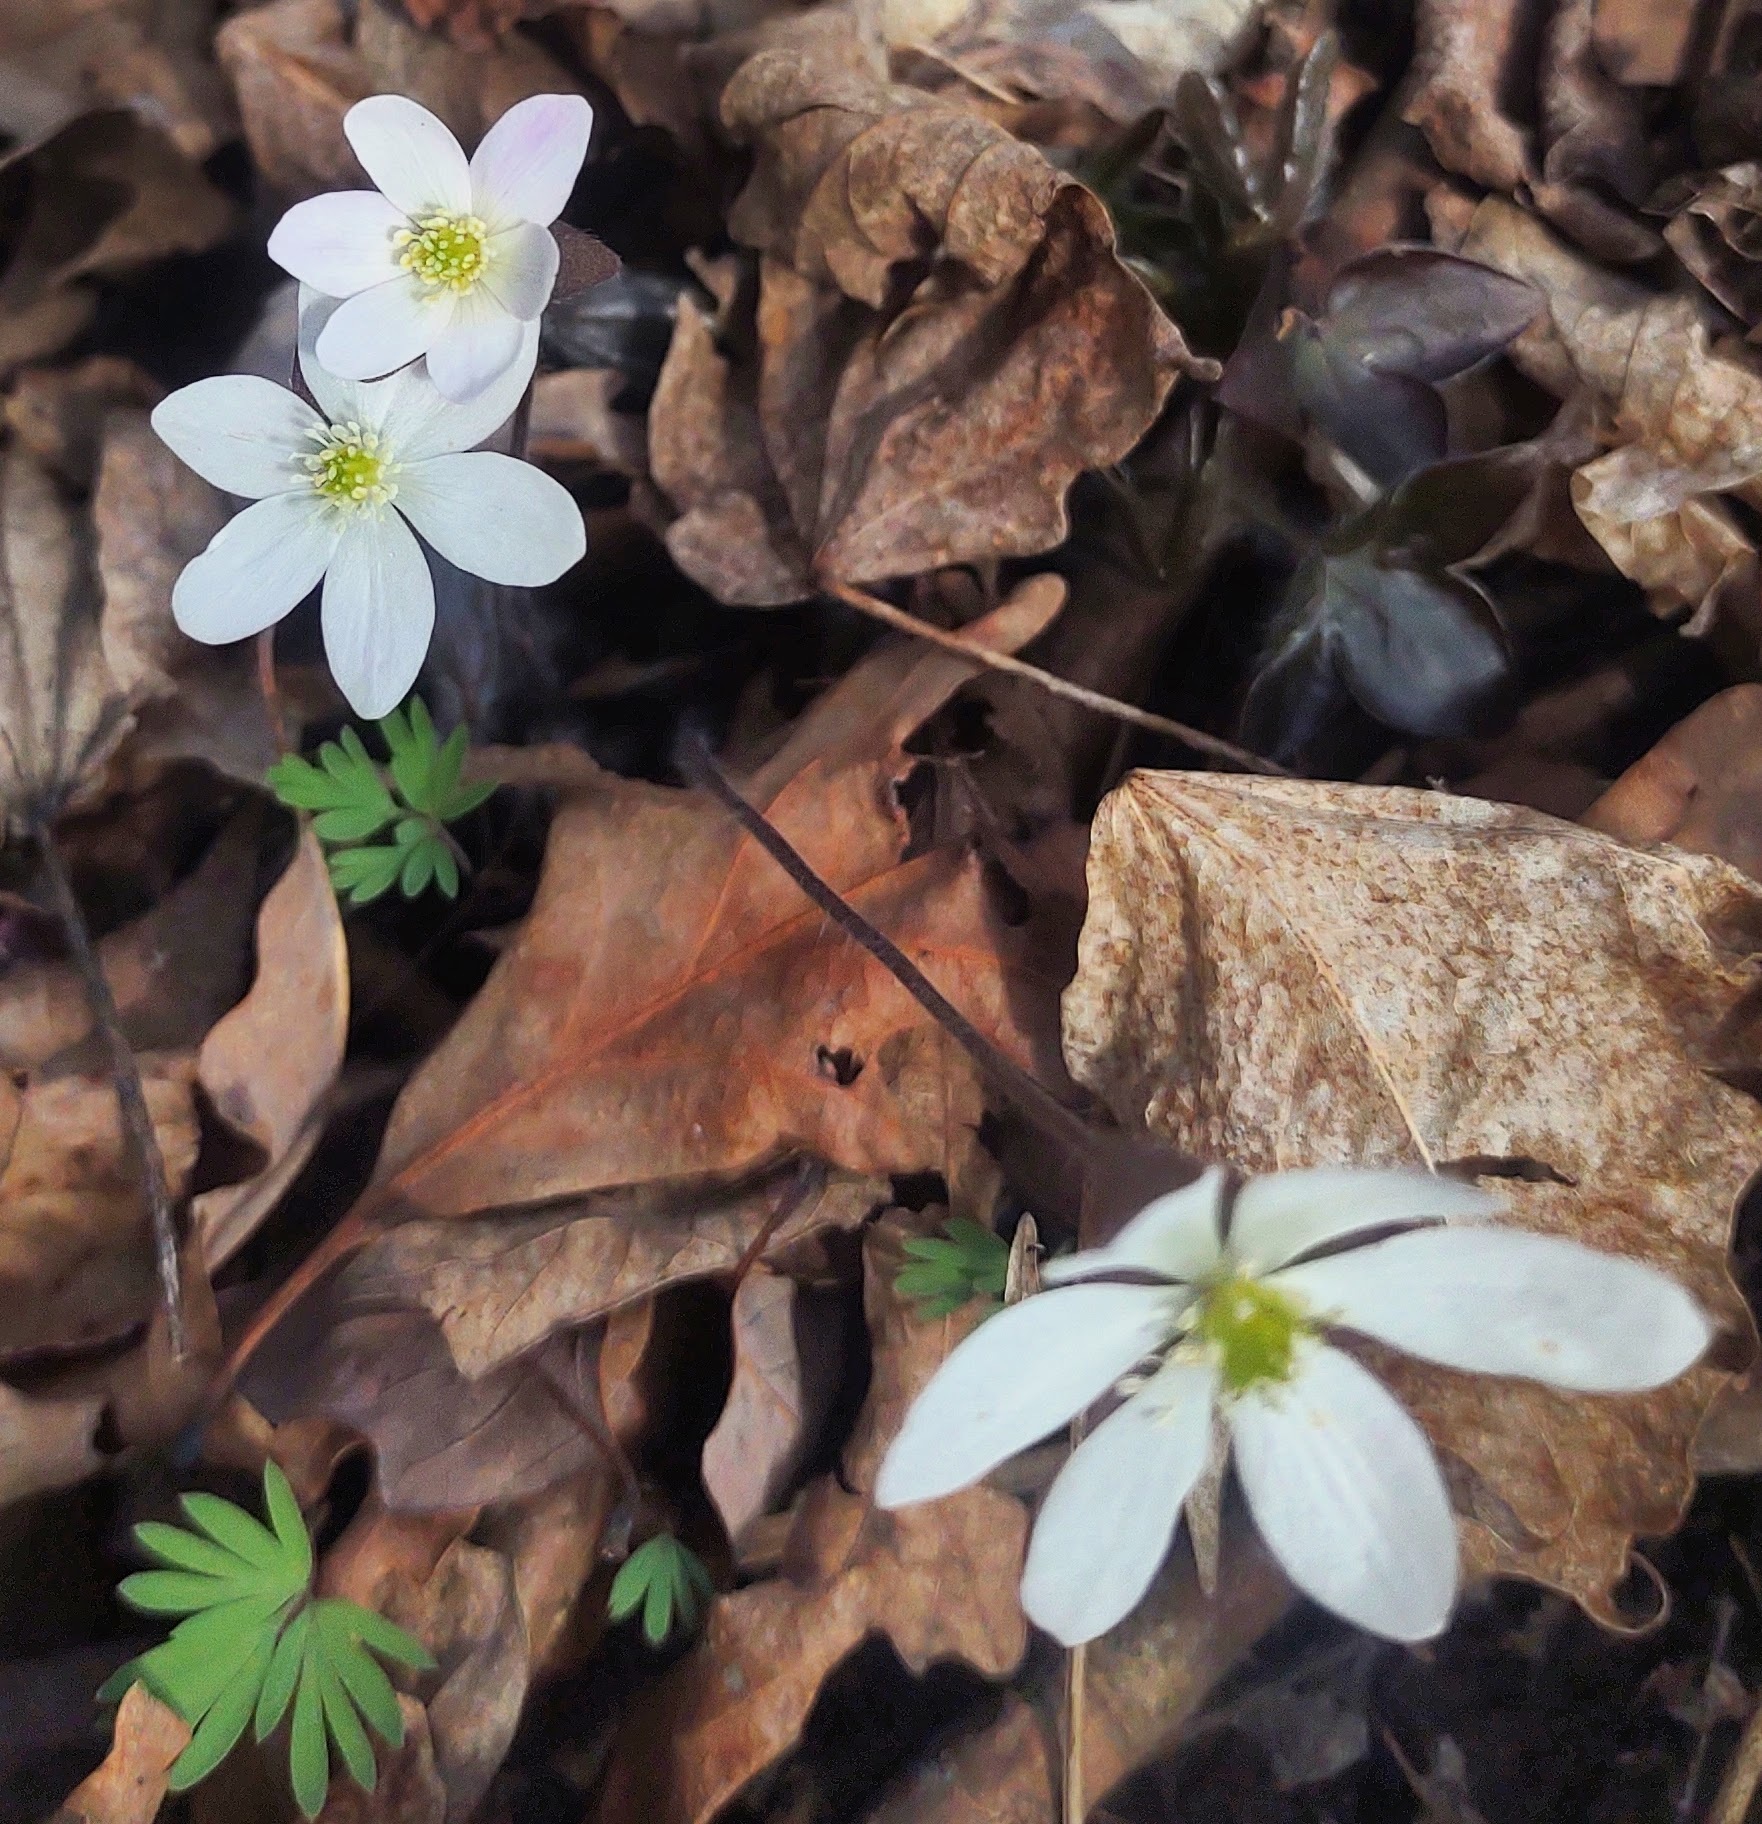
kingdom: Plantae
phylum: Tracheophyta
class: Magnoliopsida
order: Ranunculales
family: Ranunculaceae
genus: Hepatica
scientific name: Hepatica acutiloba
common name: Sharp-lobed hepatica
